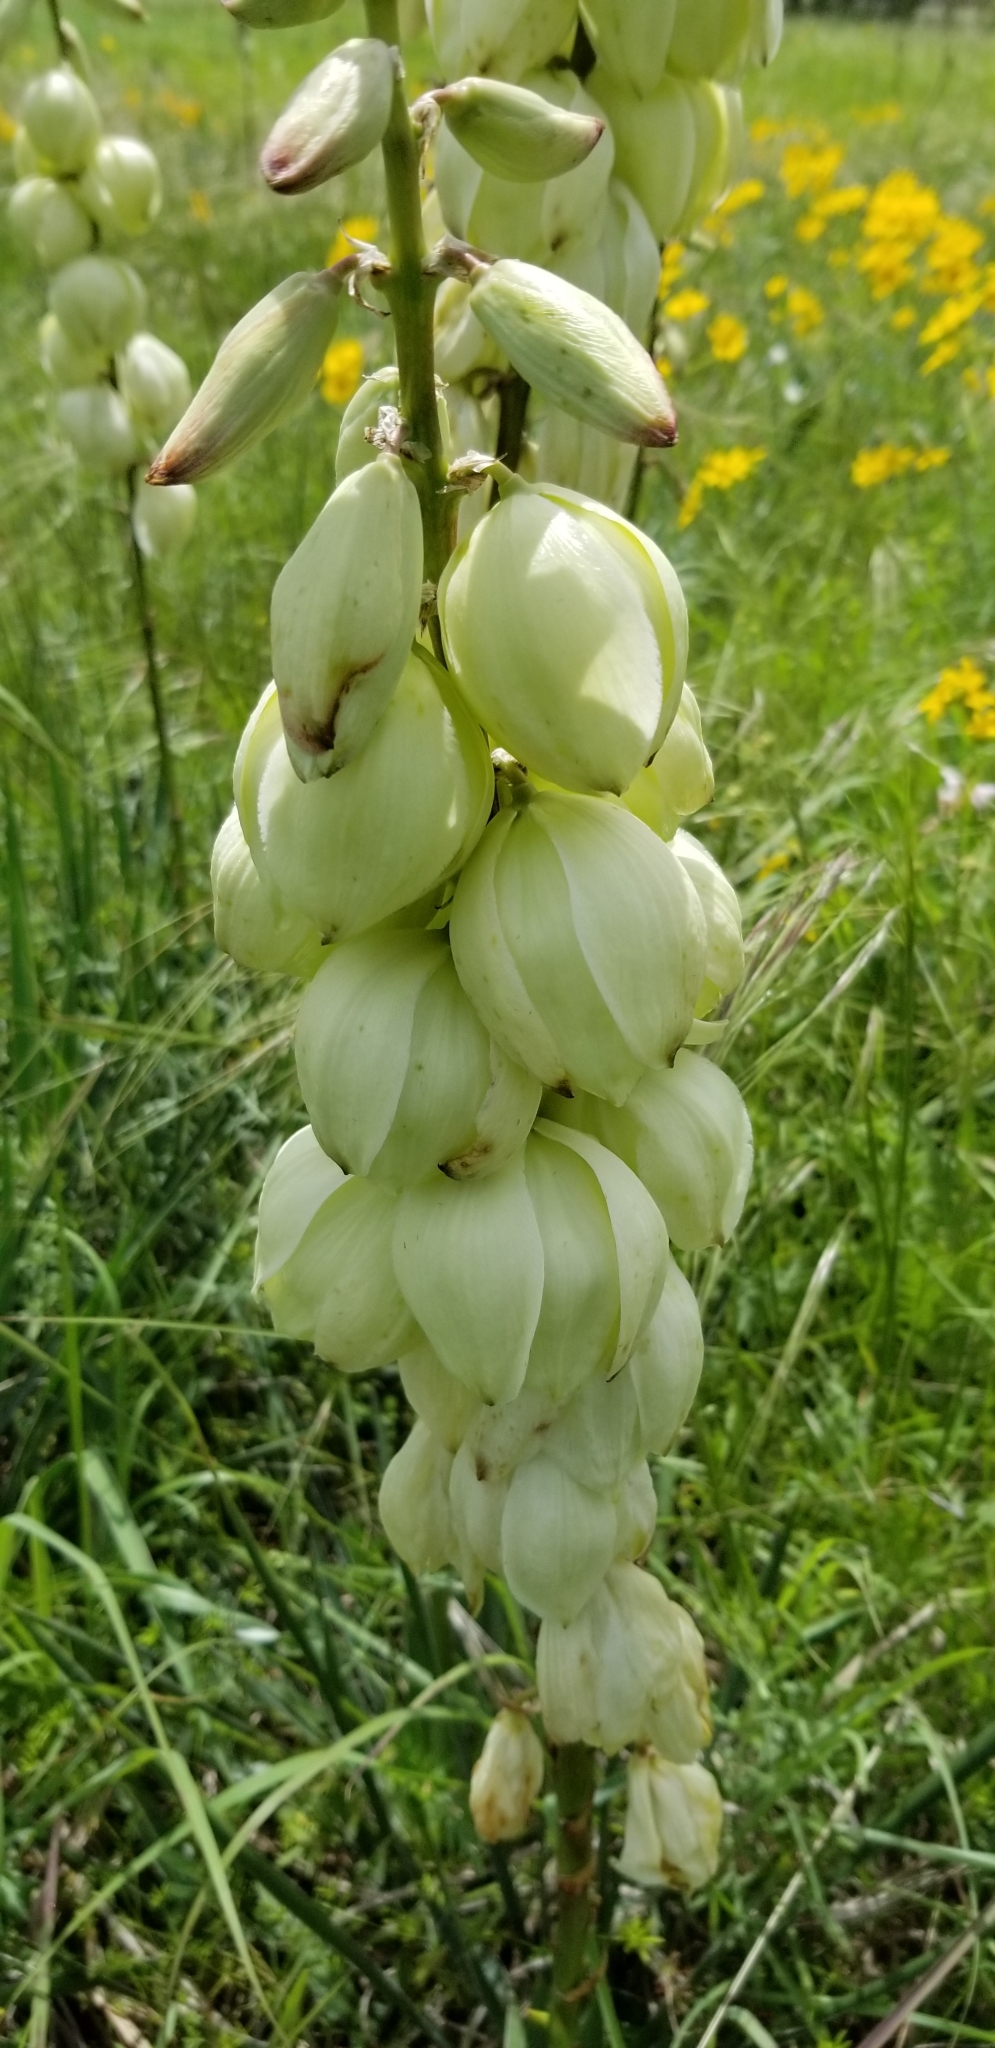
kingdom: Plantae
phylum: Tracheophyta
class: Liliopsida
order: Asparagales
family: Asparagaceae
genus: Yucca
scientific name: Yucca arkansana
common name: Arkansas yucca
